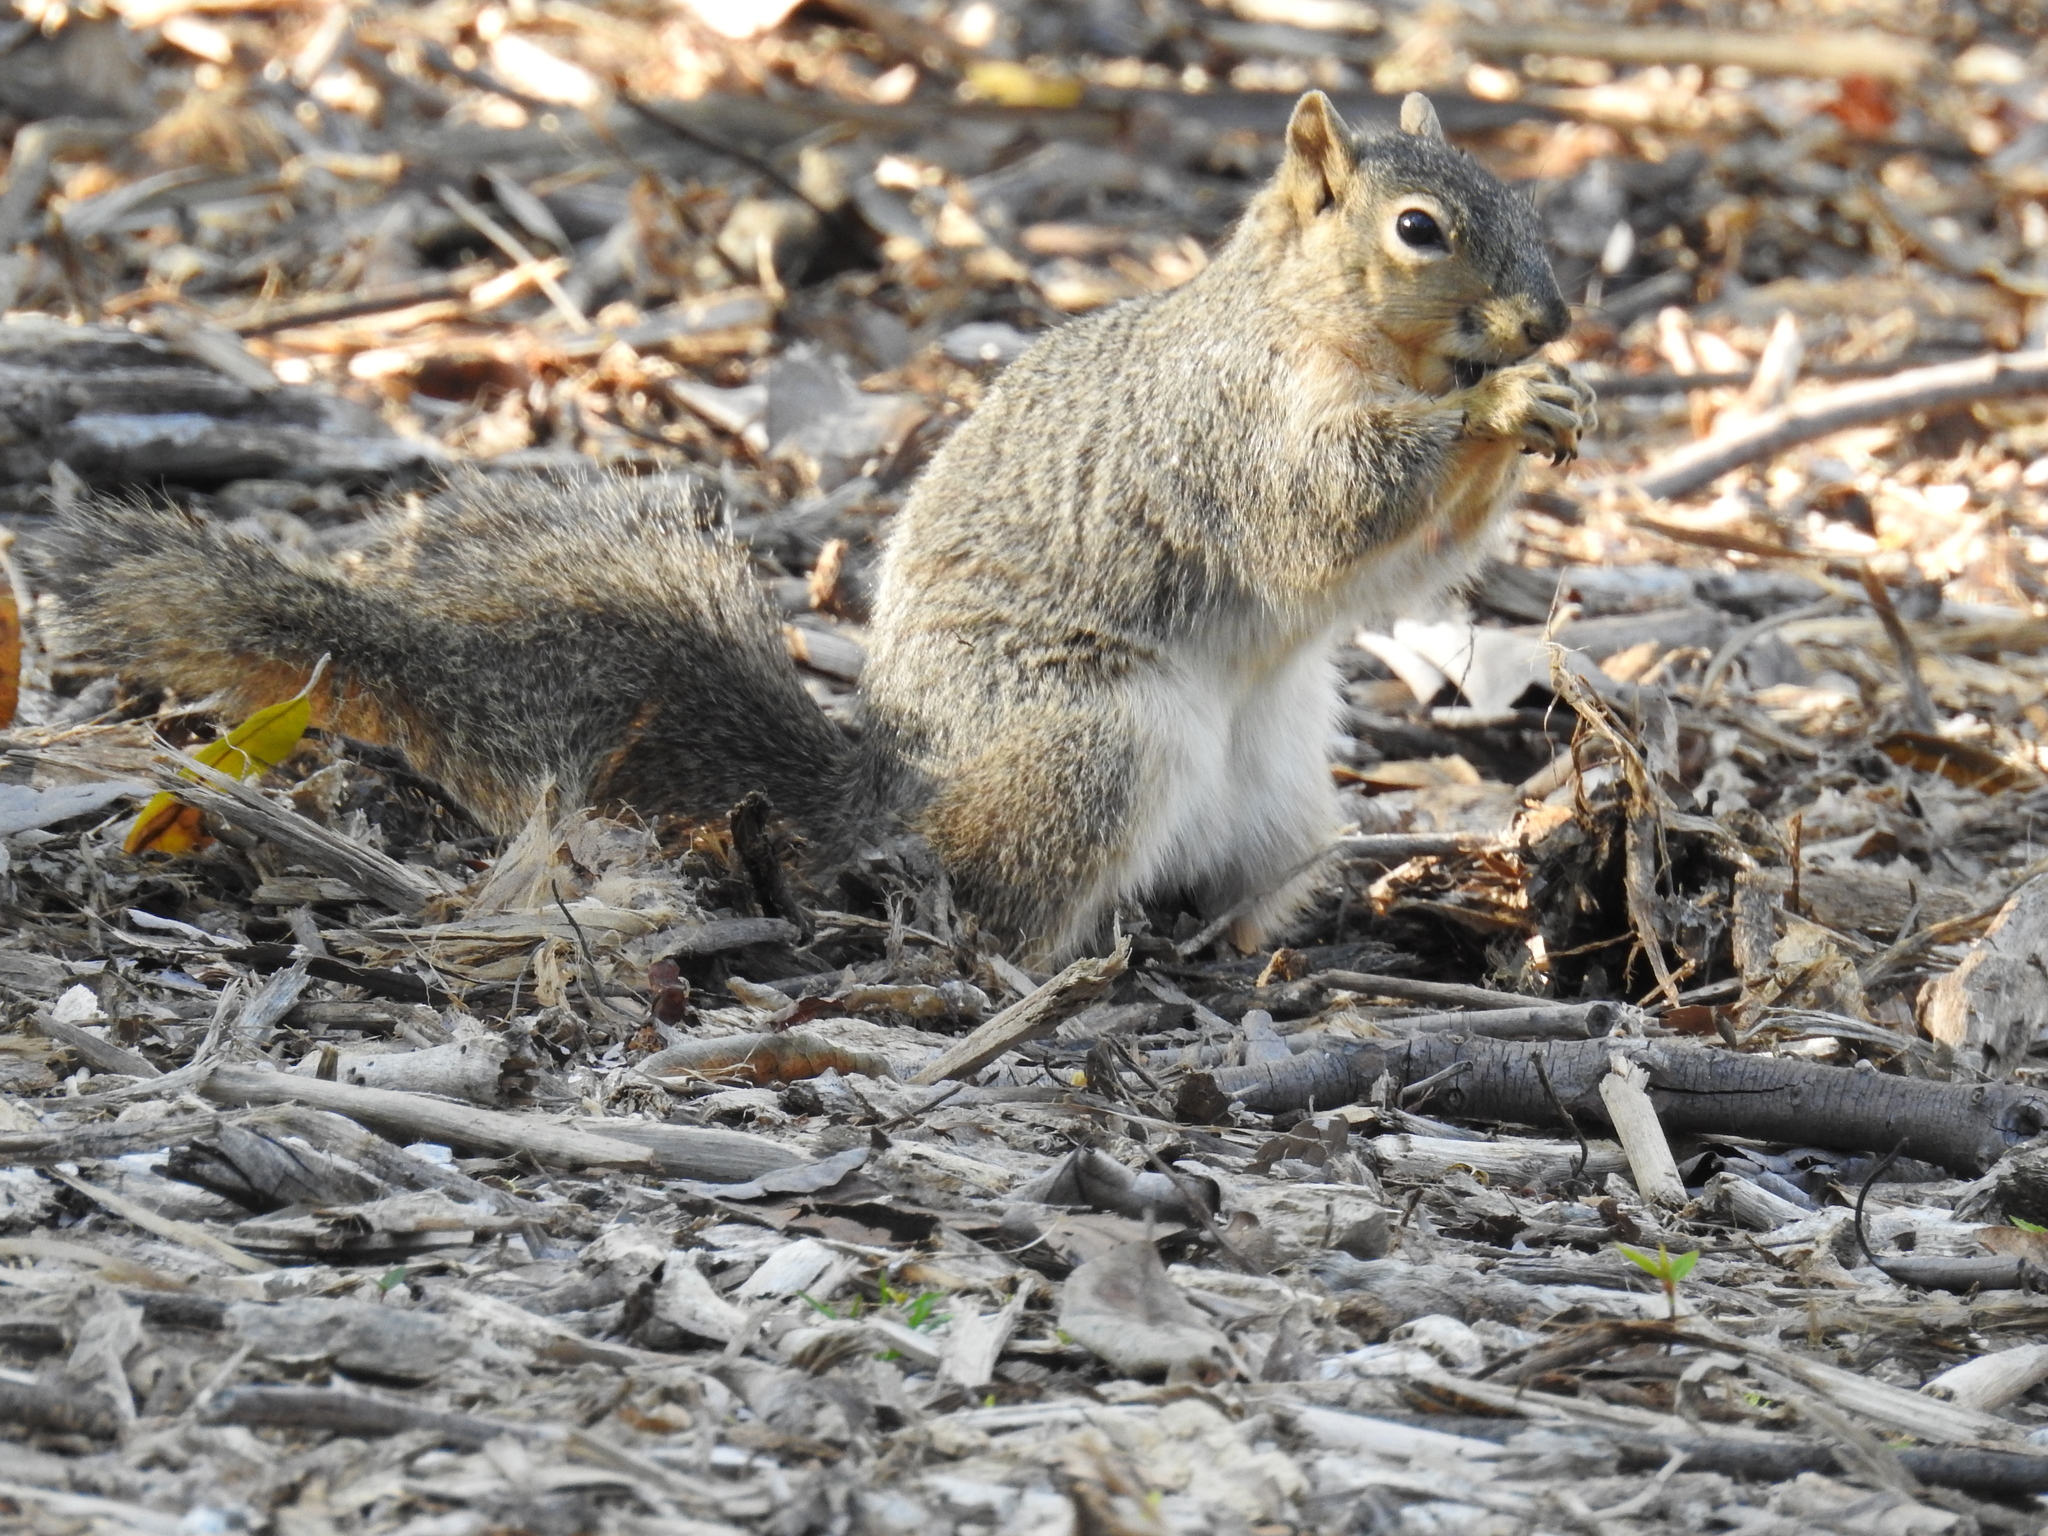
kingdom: Animalia
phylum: Chordata
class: Mammalia
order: Rodentia
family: Sciuridae
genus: Sciurus
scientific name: Sciurus niger
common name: Fox squirrel
